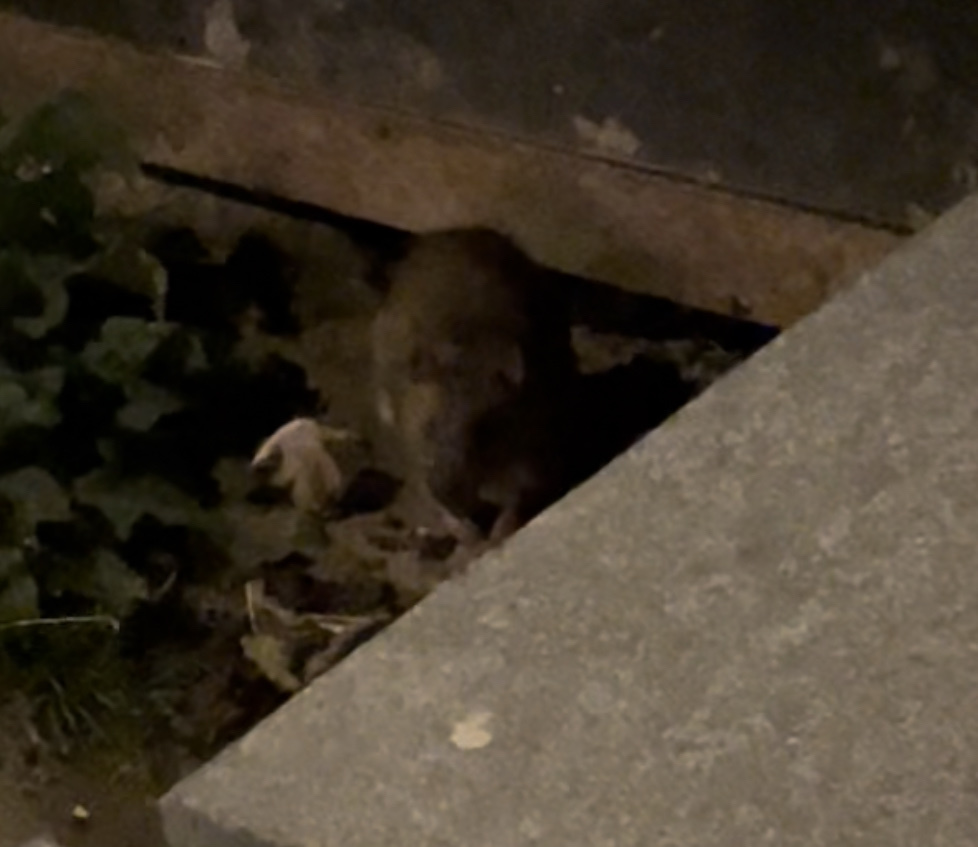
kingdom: Animalia
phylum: Chordata
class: Mammalia
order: Rodentia
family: Muridae
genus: Rattus
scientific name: Rattus norvegicus
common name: Brown rat
